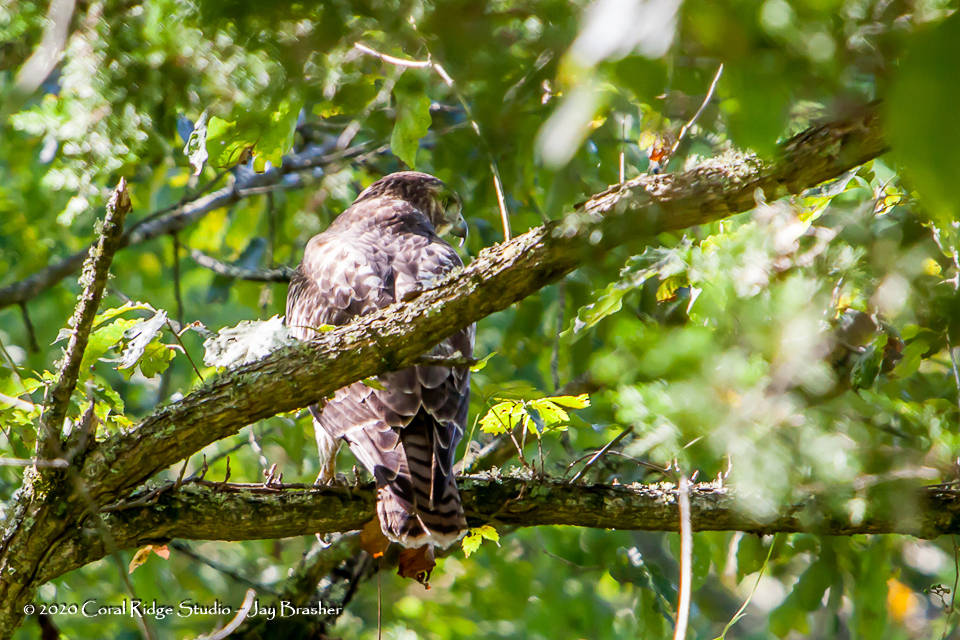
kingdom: Animalia
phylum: Chordata
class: Aves
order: Accipitriformes
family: Accipitridae
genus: Buteo
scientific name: Buteo jamaicensis
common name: Red-tailed hawk
